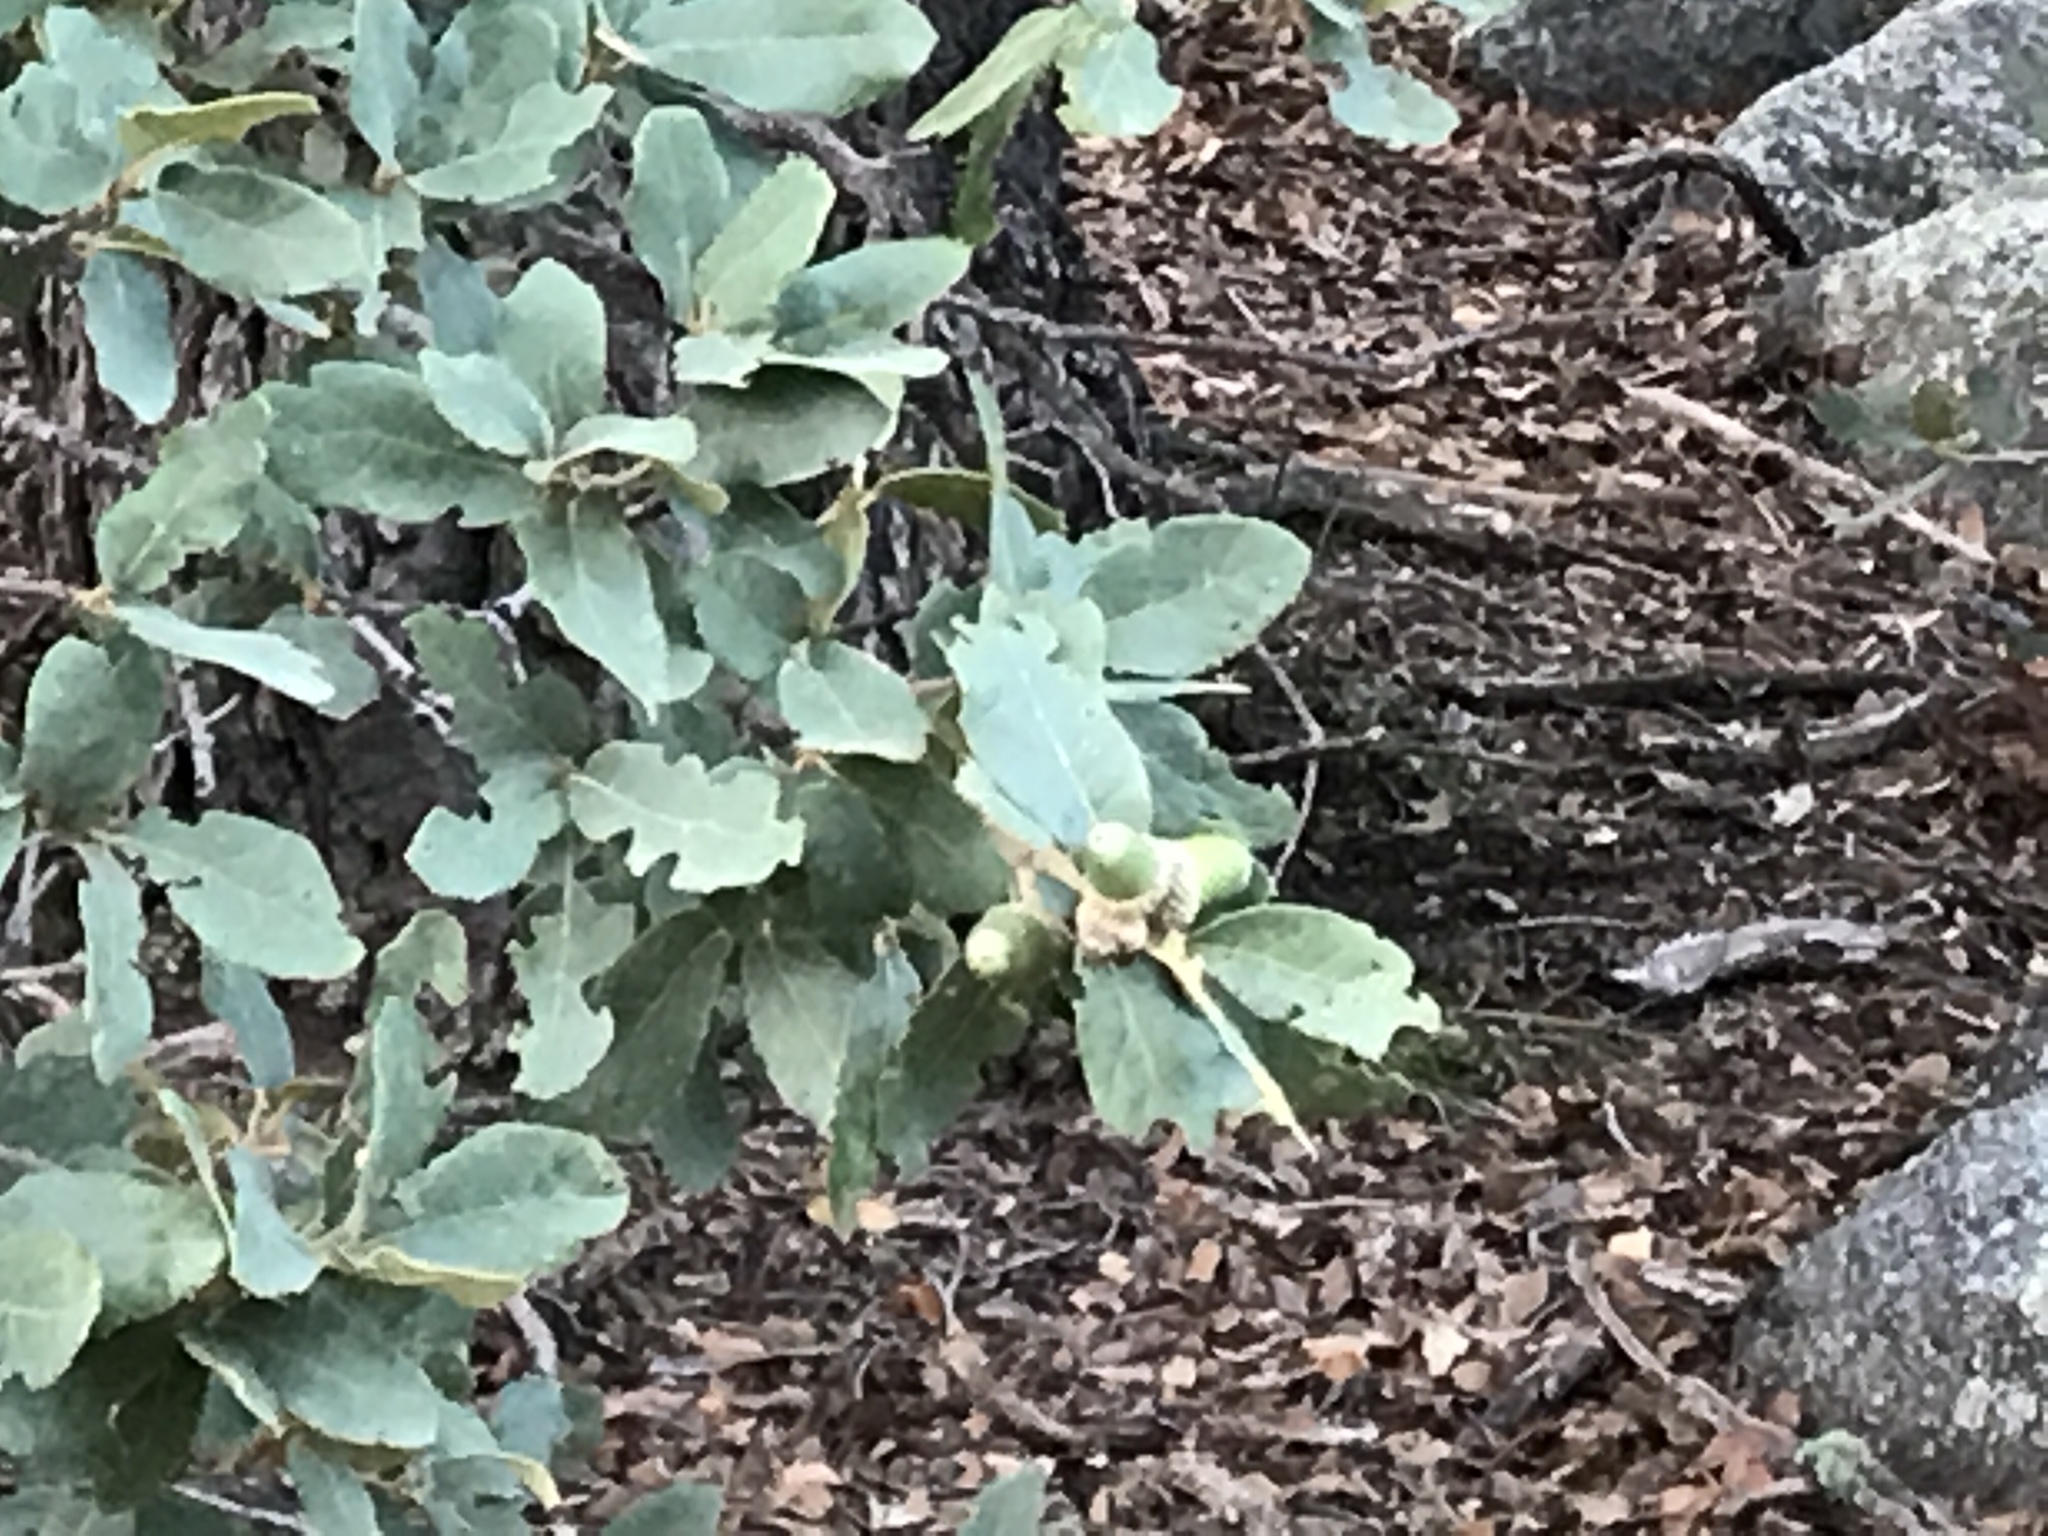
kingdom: Plantae
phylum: Tracheophyta
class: Magnoliopsida
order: Fagales
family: Fagaceae
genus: Quercus
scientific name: Quercus arizonica
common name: Arizona white oak
